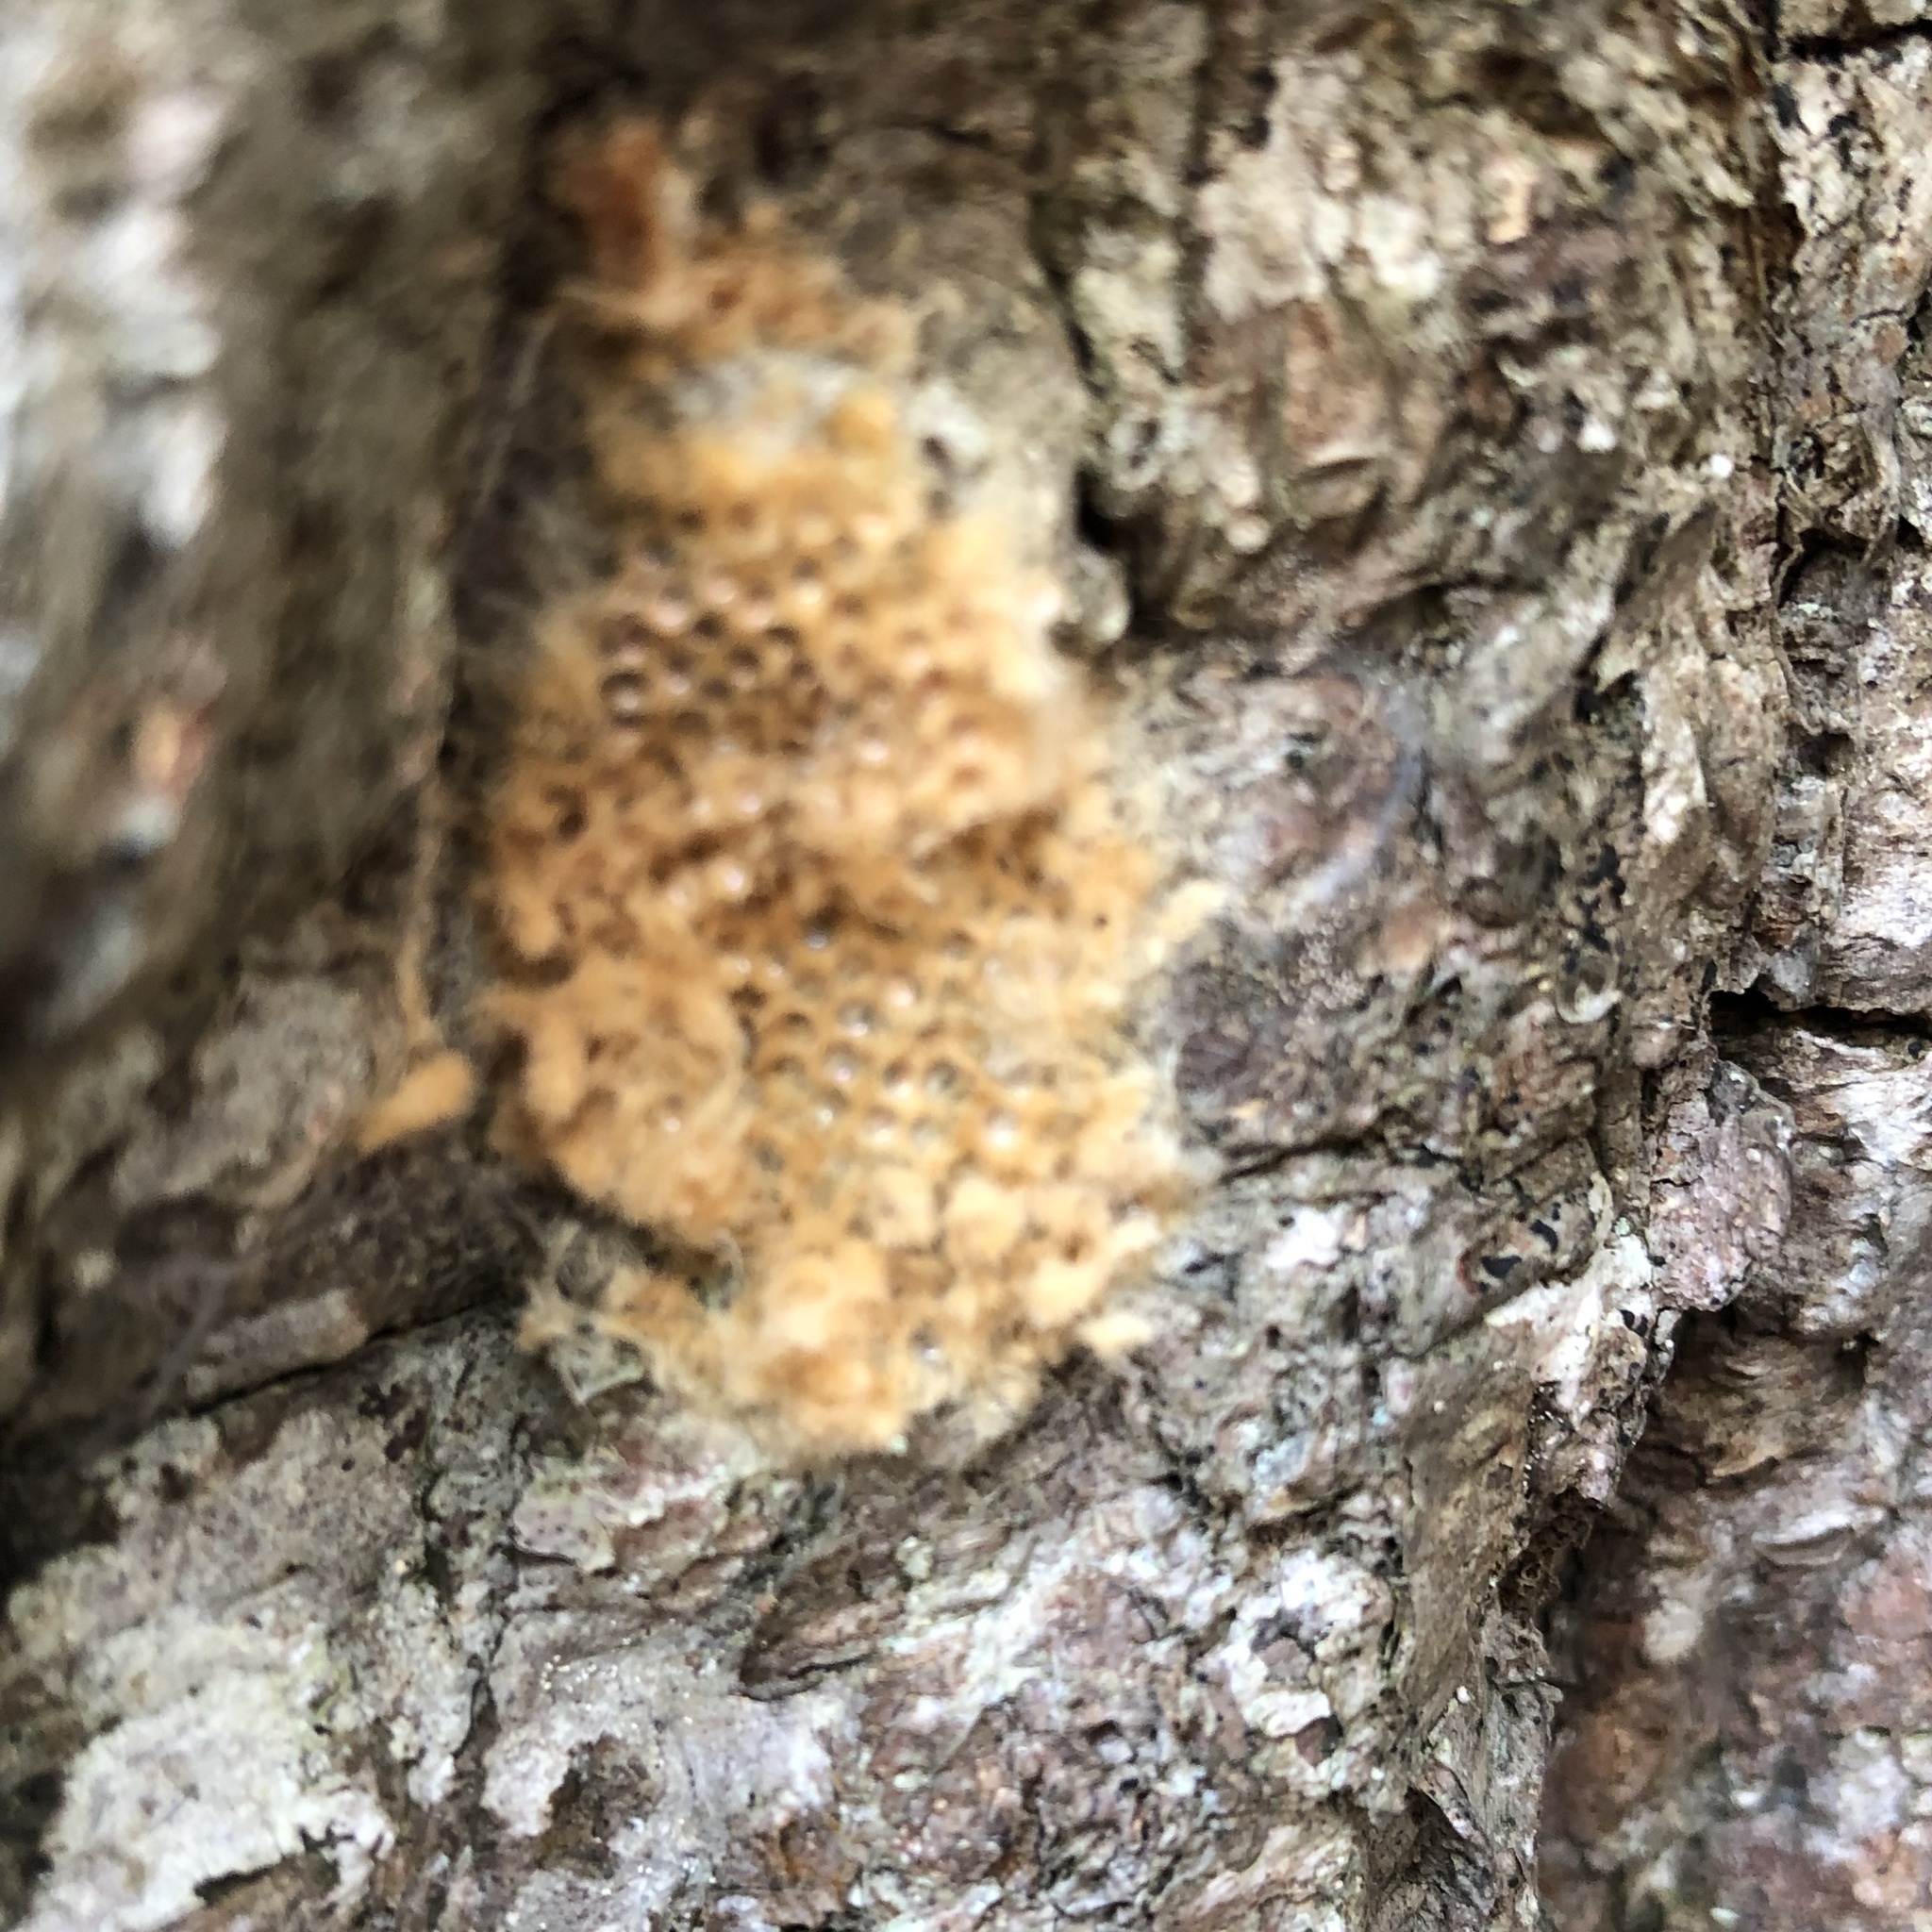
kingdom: Animalia
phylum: Arthropoda
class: Insecta
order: Lepidoptera
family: Erebidae
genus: Lymantria
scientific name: Lymantria dispar
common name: Gypsy moth
